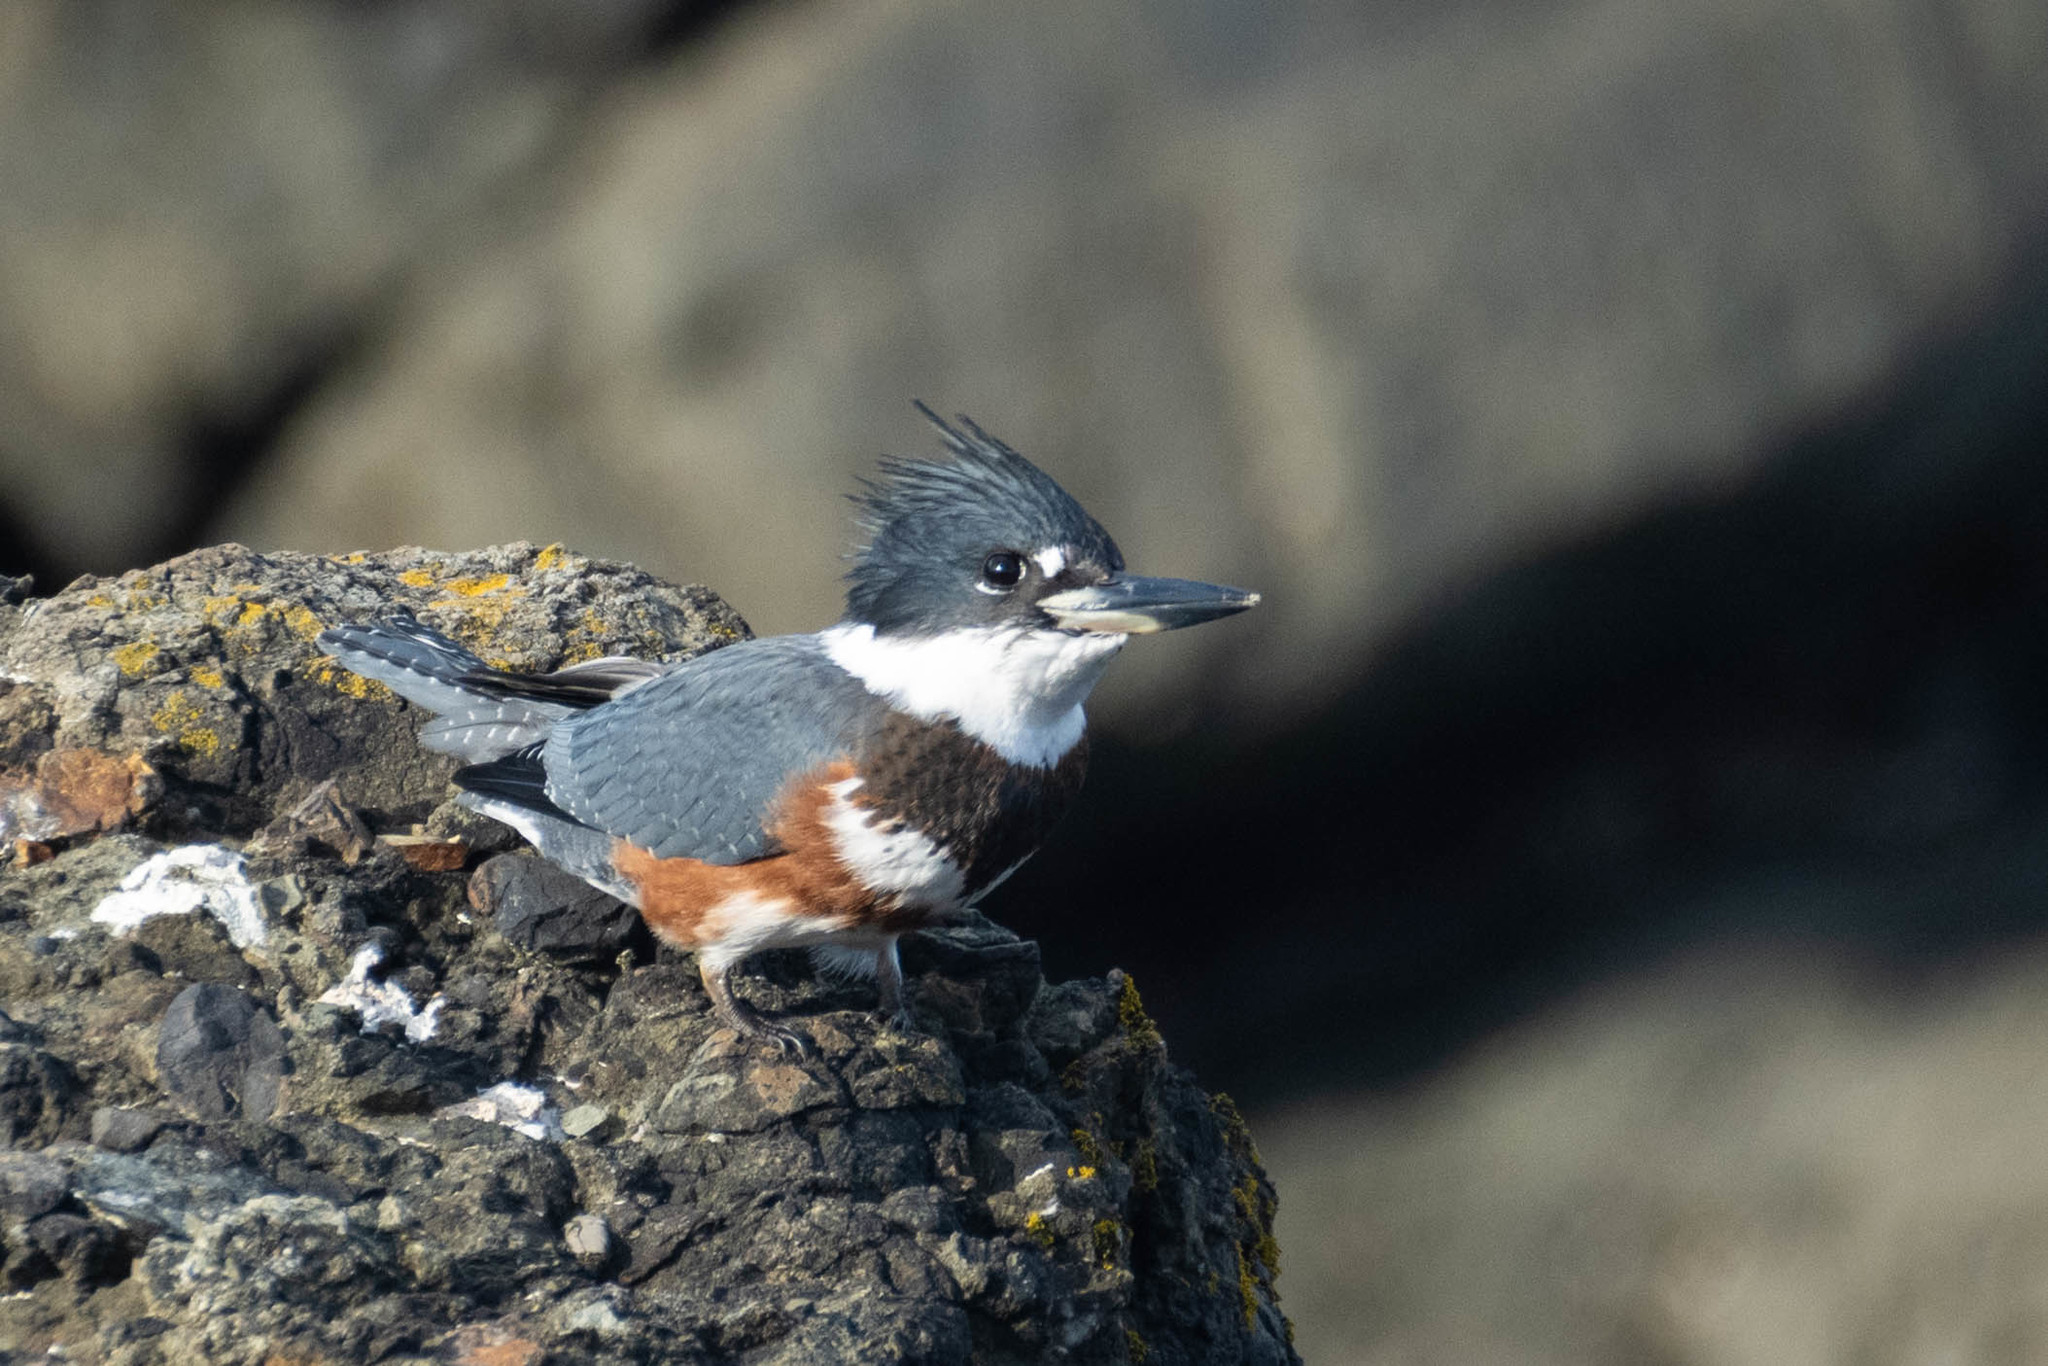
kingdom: Animalia
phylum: Chordata
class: Aves
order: Coraciiformes
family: Alcedinidae
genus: Megaceryle
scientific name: Megaceryle alcyon
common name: Belted kingfisher
